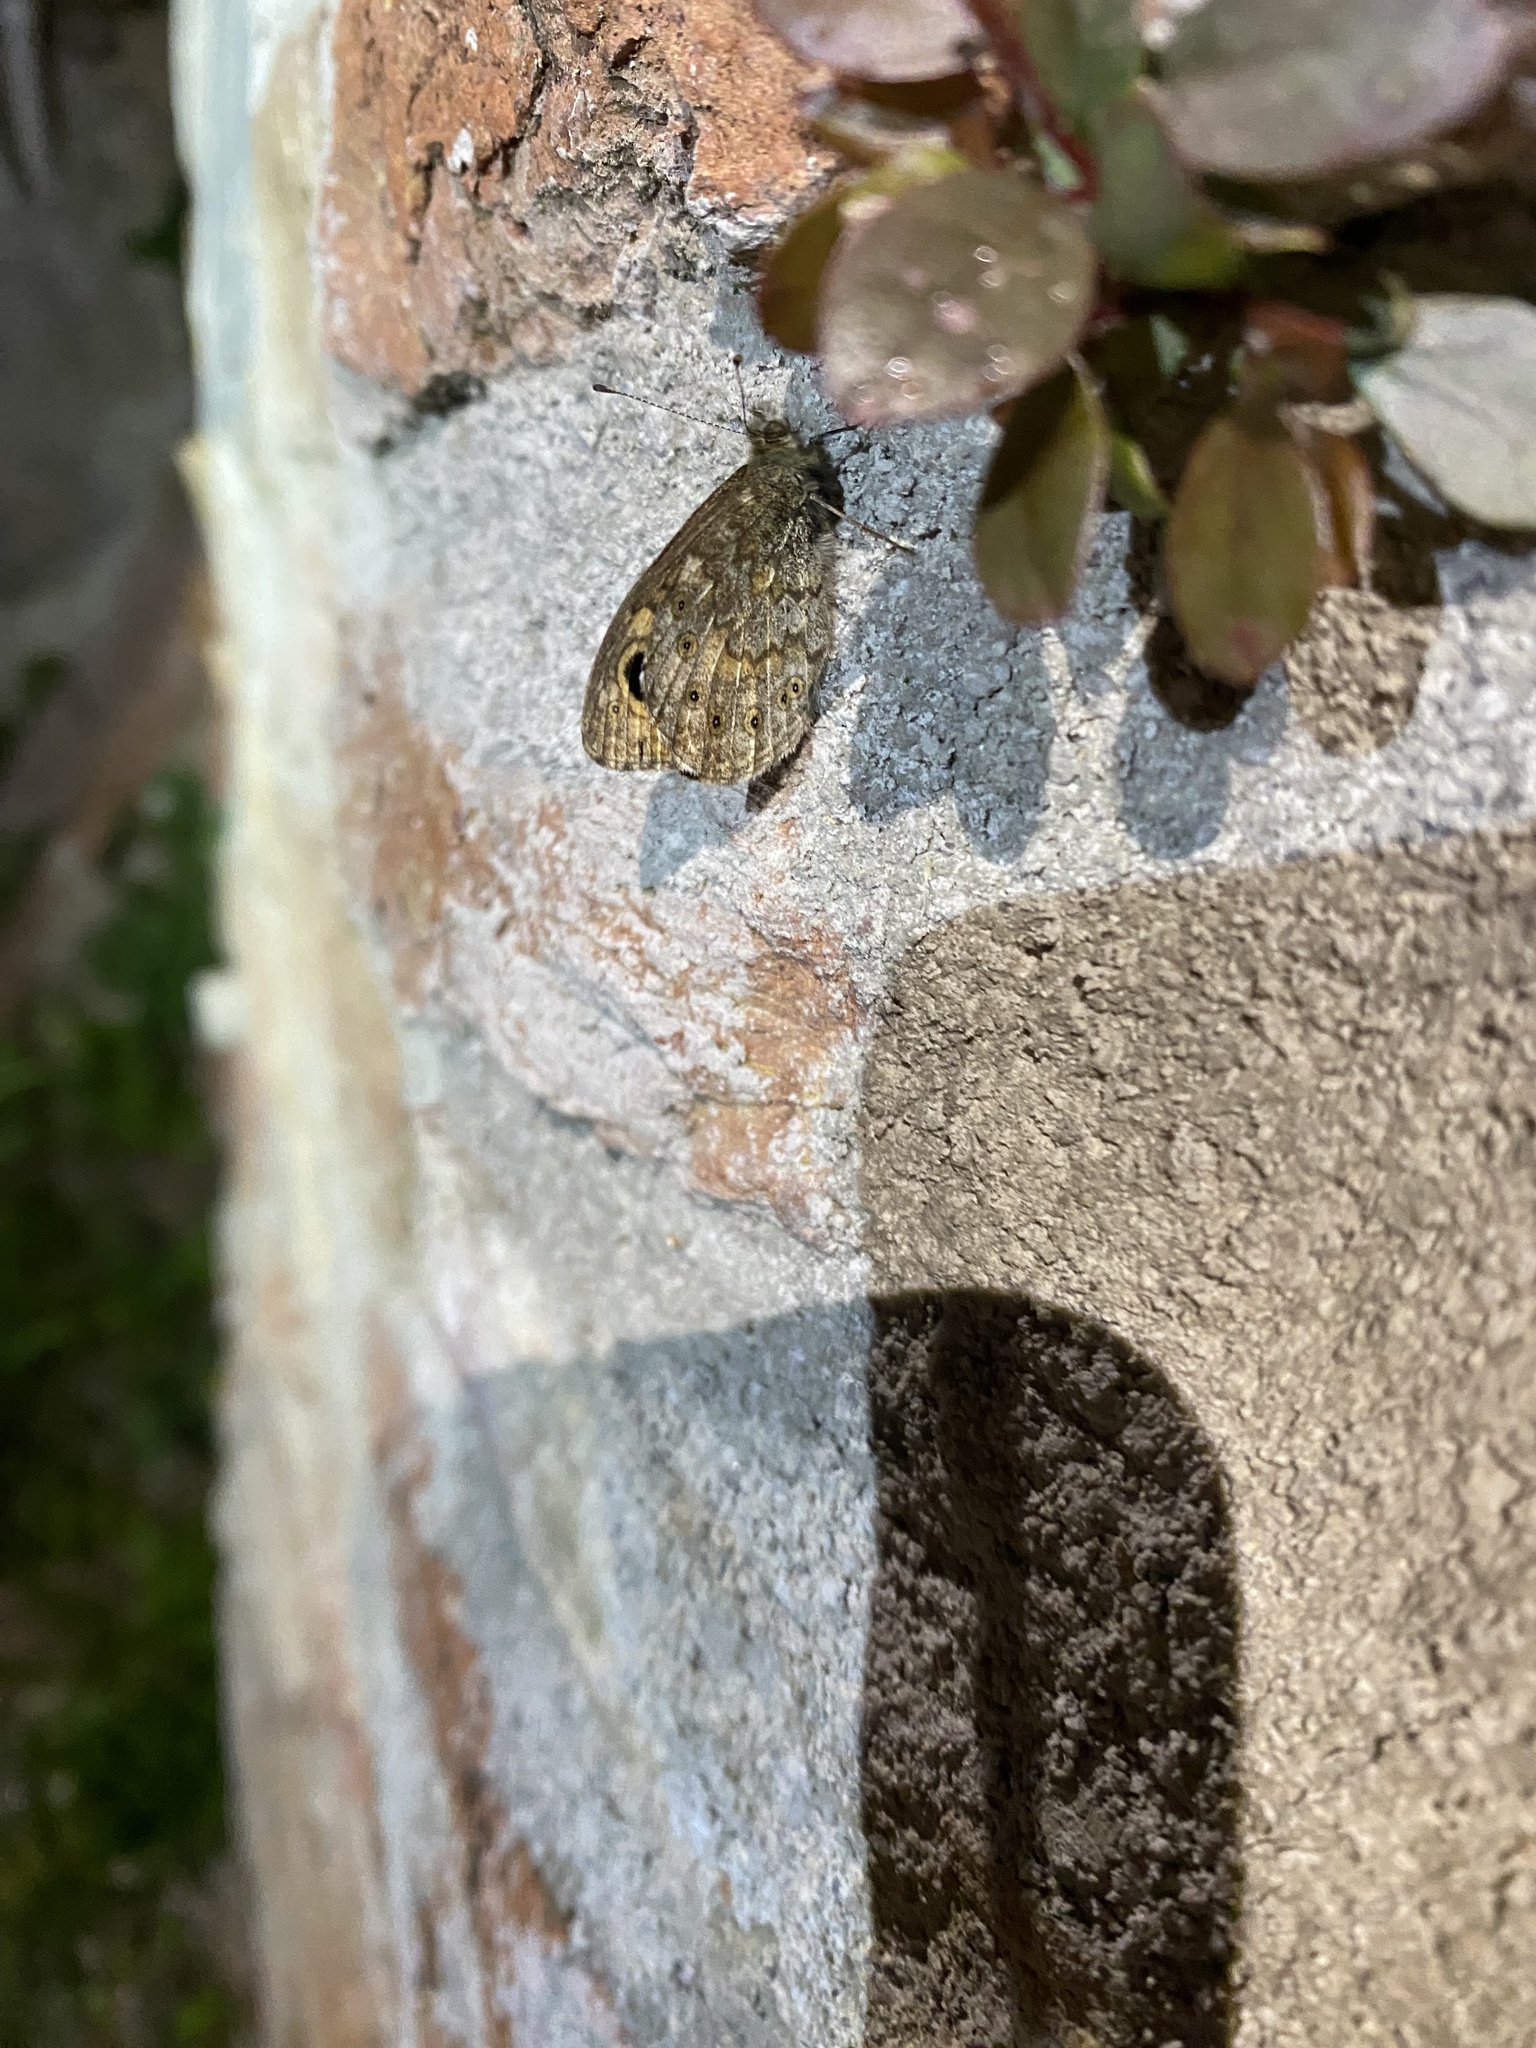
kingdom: Animalia
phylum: Arthropoda
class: Insecta
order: Lepidoptera
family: Nymphalidae
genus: Pararge
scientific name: Pararge Lasiommata megera
